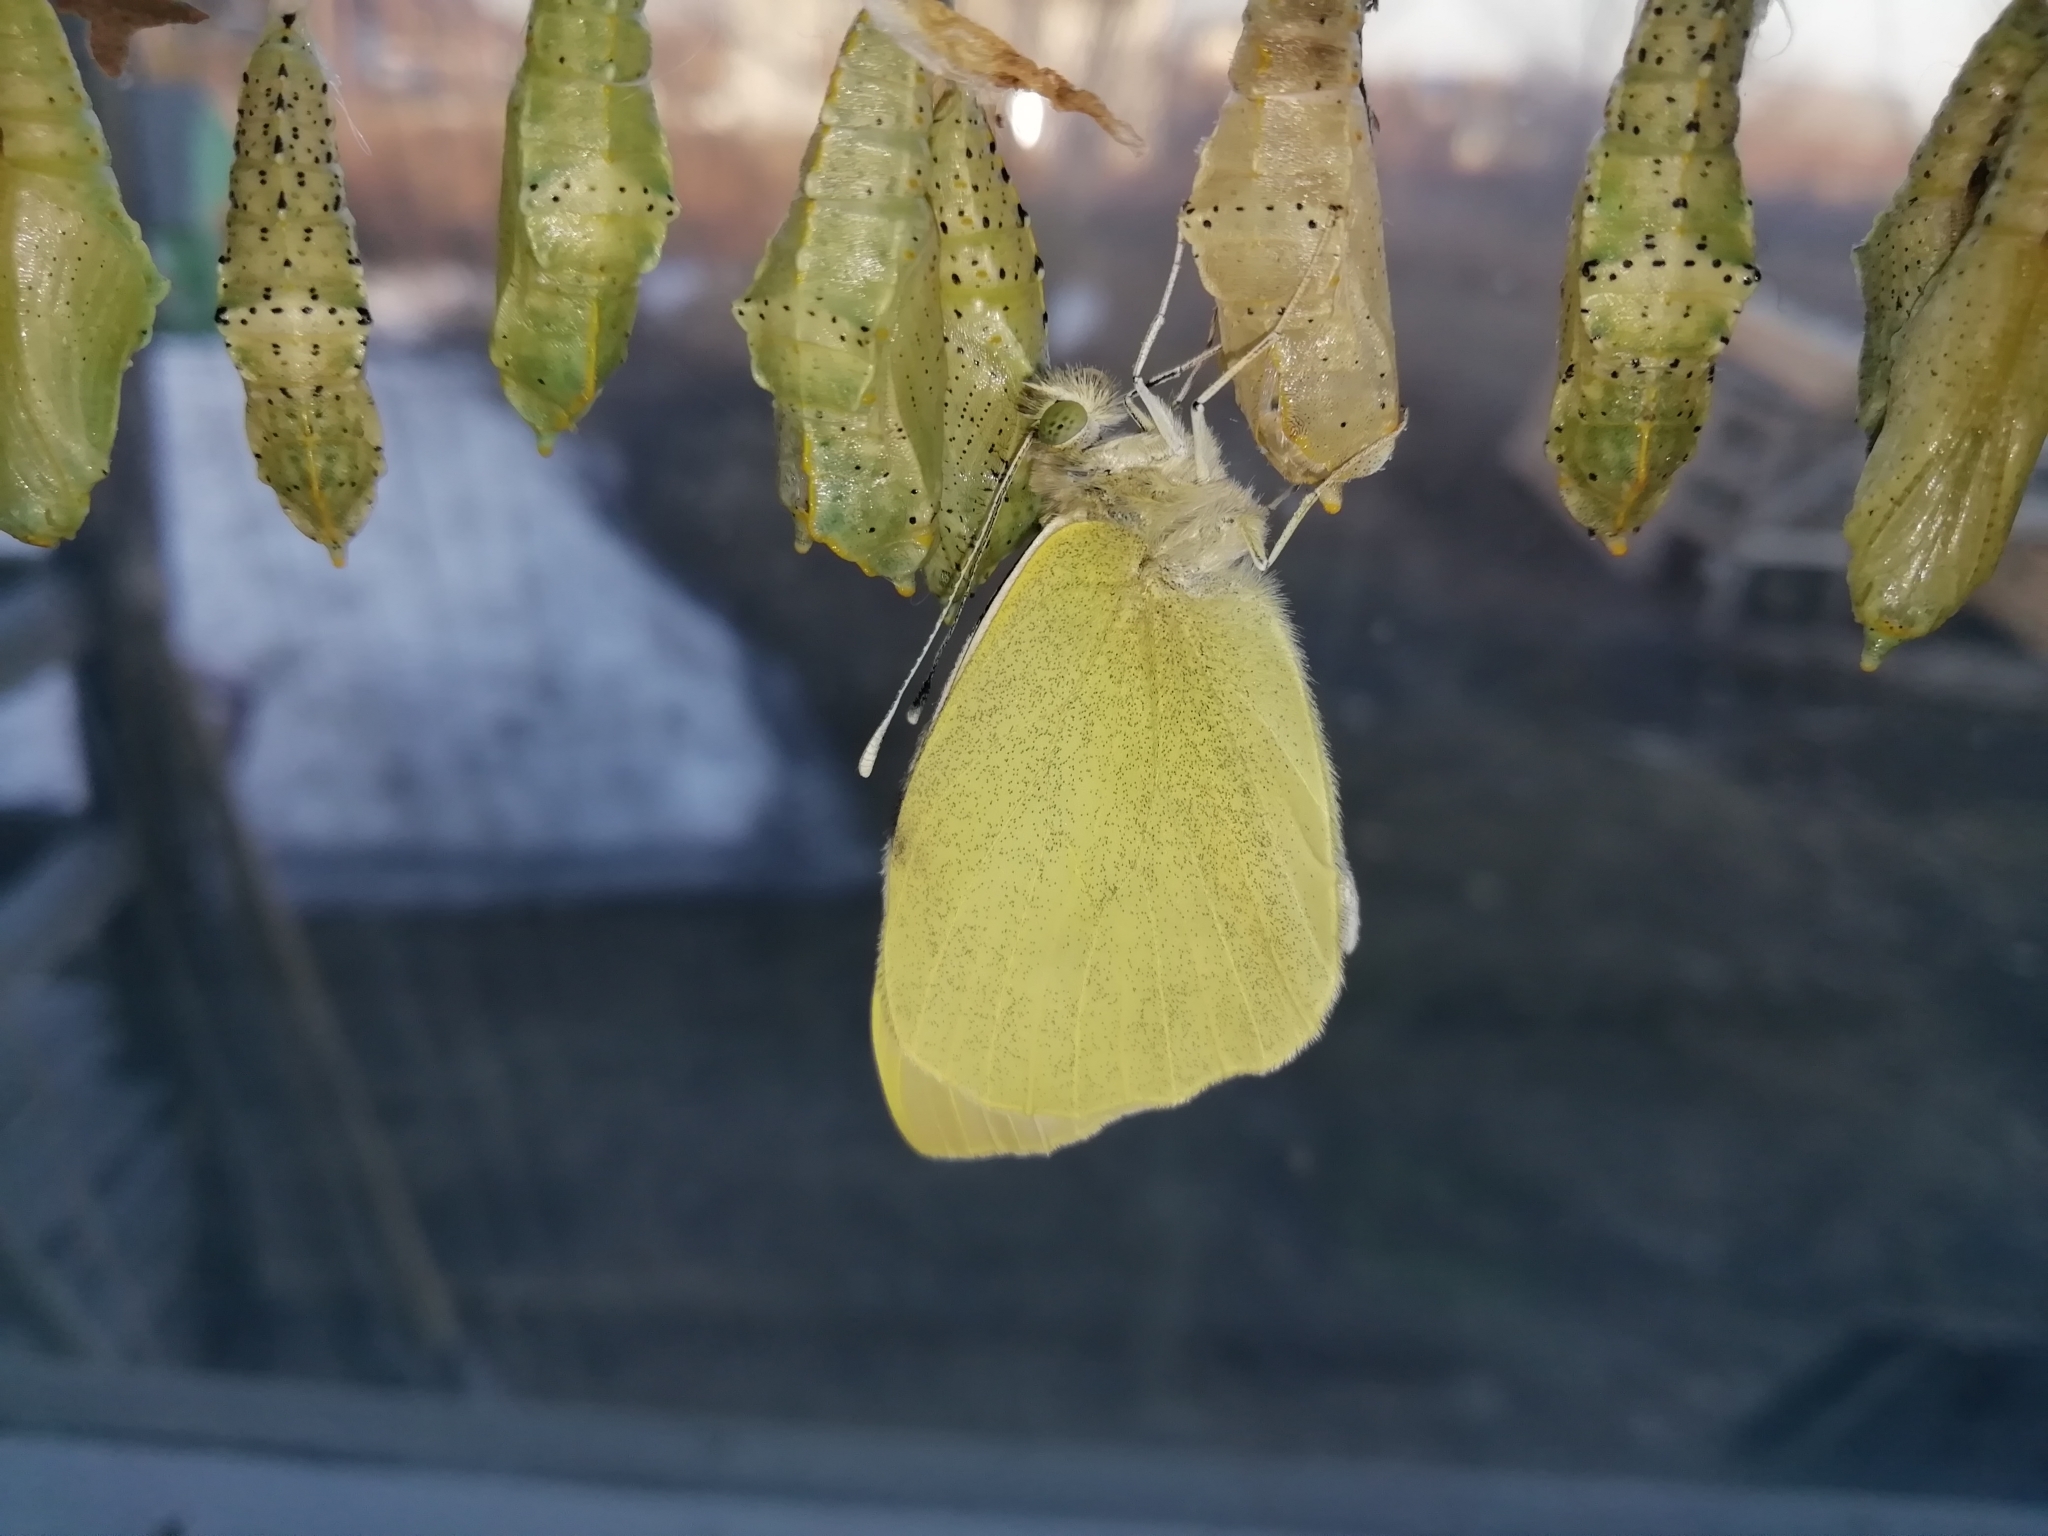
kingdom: Animalia
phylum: Arthropoda
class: Insecta
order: Lepidoptera
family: Pieridae
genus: Pieris
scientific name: Pieris brassicae
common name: Large white
